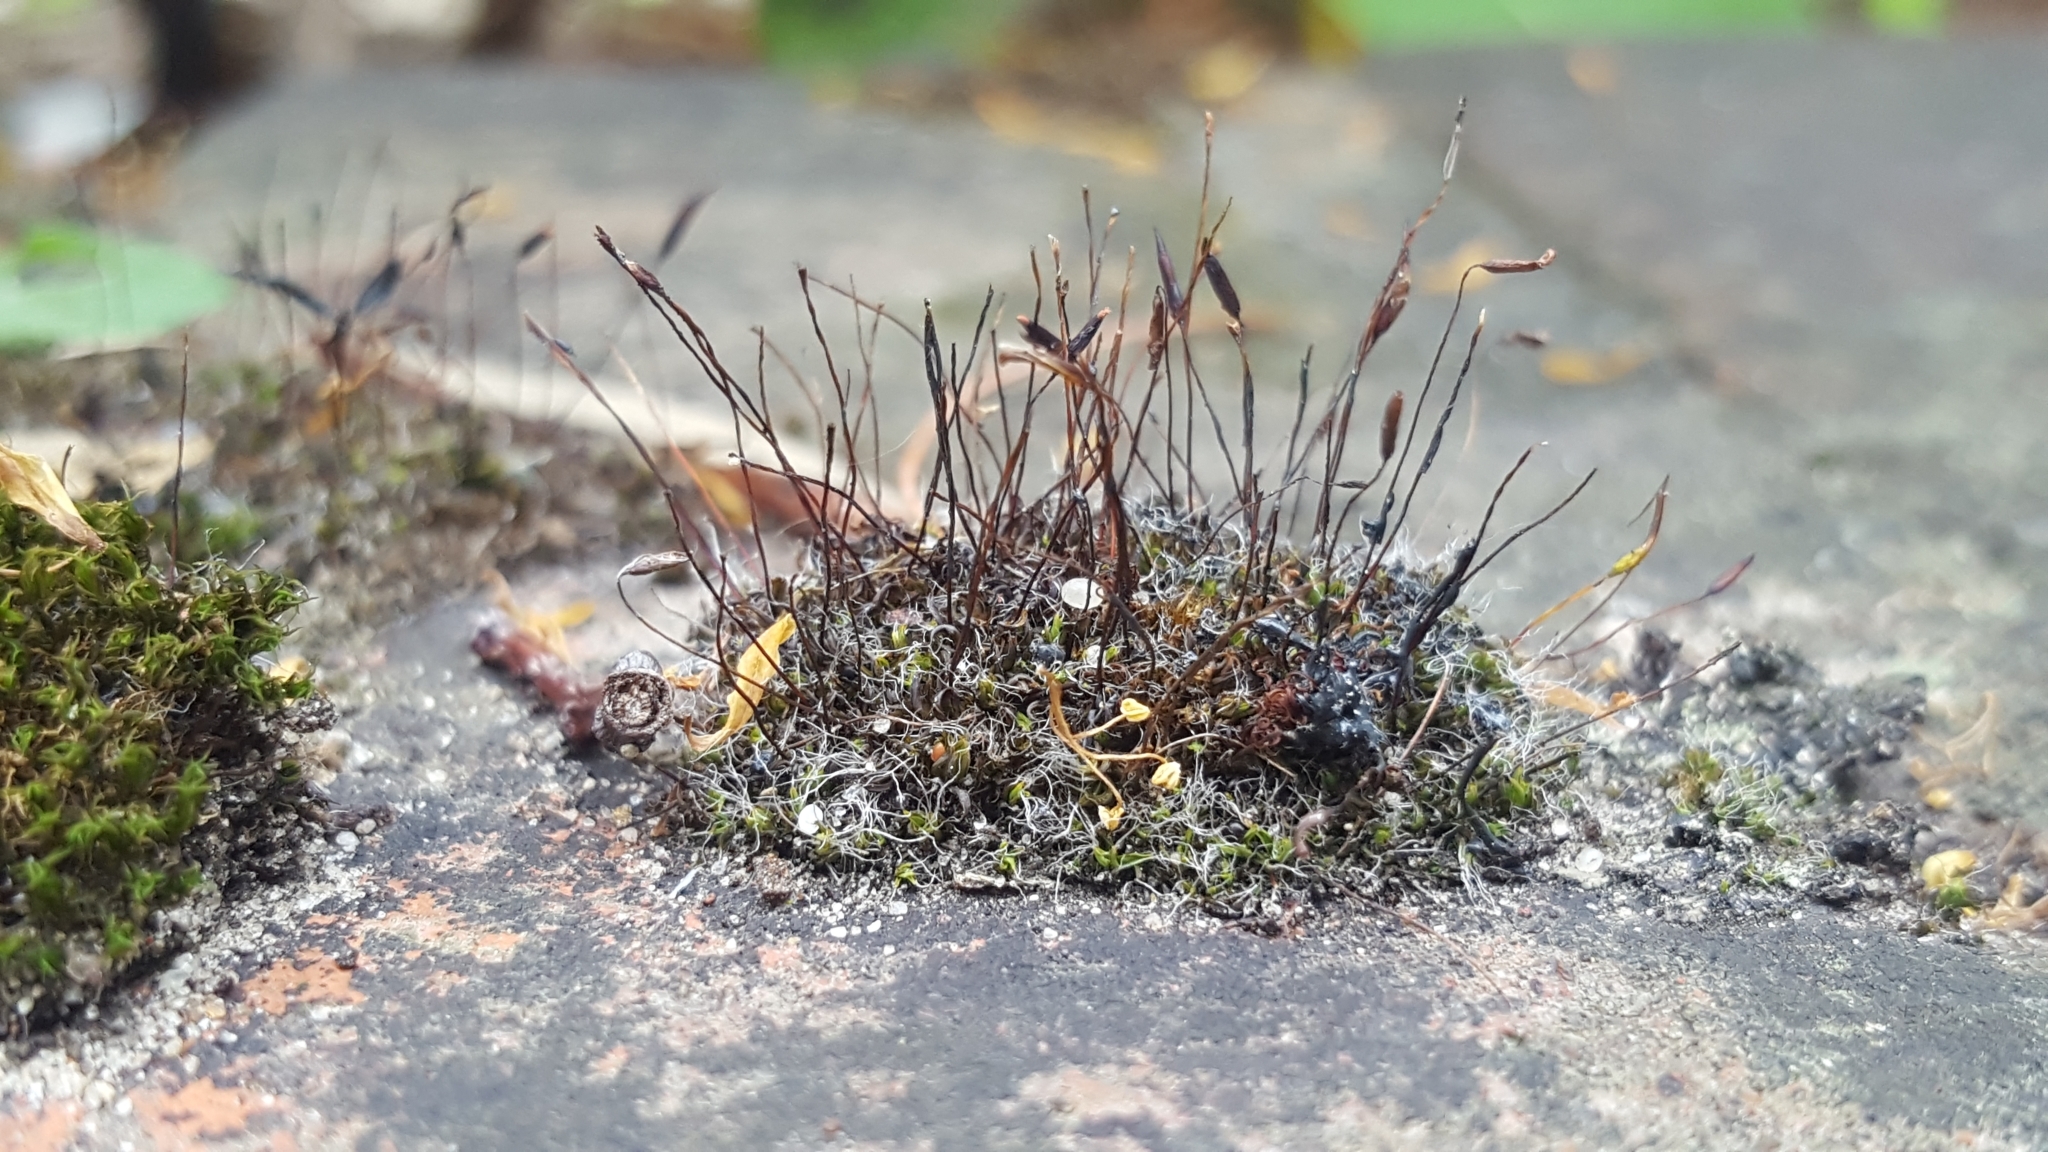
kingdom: Plantae
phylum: Bryophyta
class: Bryopsida
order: Pottiales
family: Pottiaceae
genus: Tortula
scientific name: Tortula muralis
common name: Wall screw-moss
